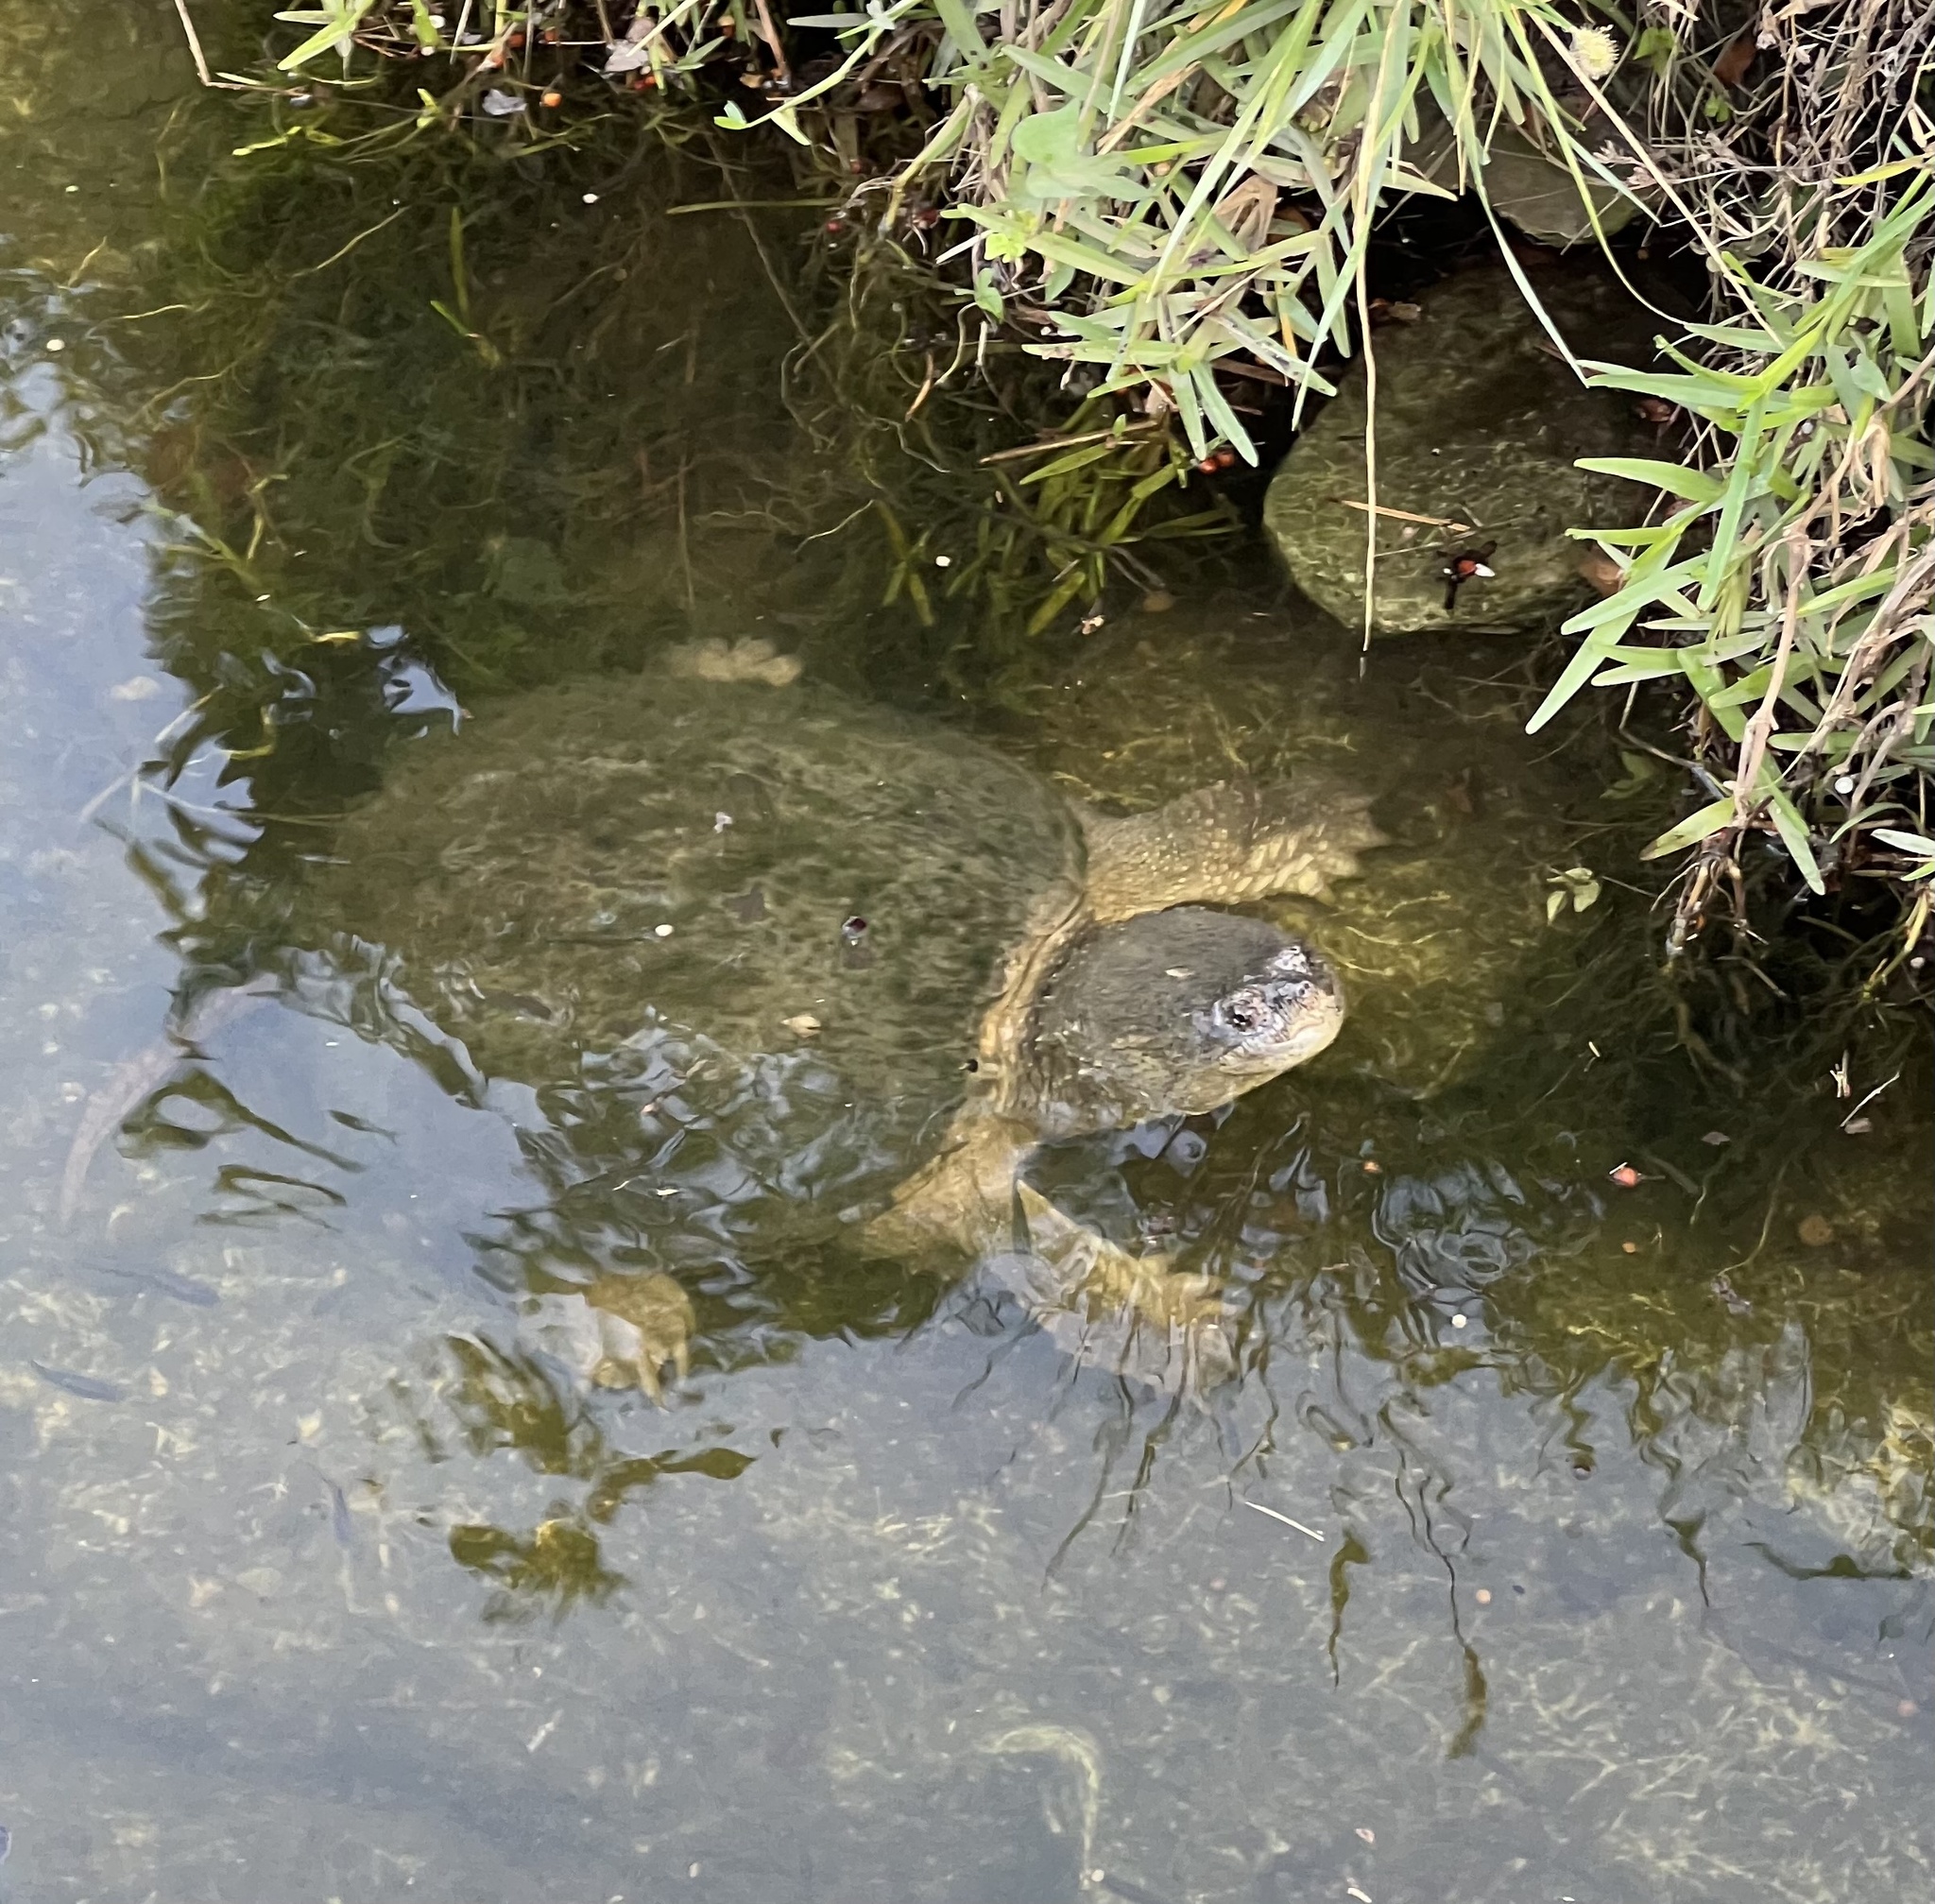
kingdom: Animalia
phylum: Chordata
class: Testudines
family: Chelydridae
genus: Chelydra
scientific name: Chelydra serpentina
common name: Common snapping turtle
